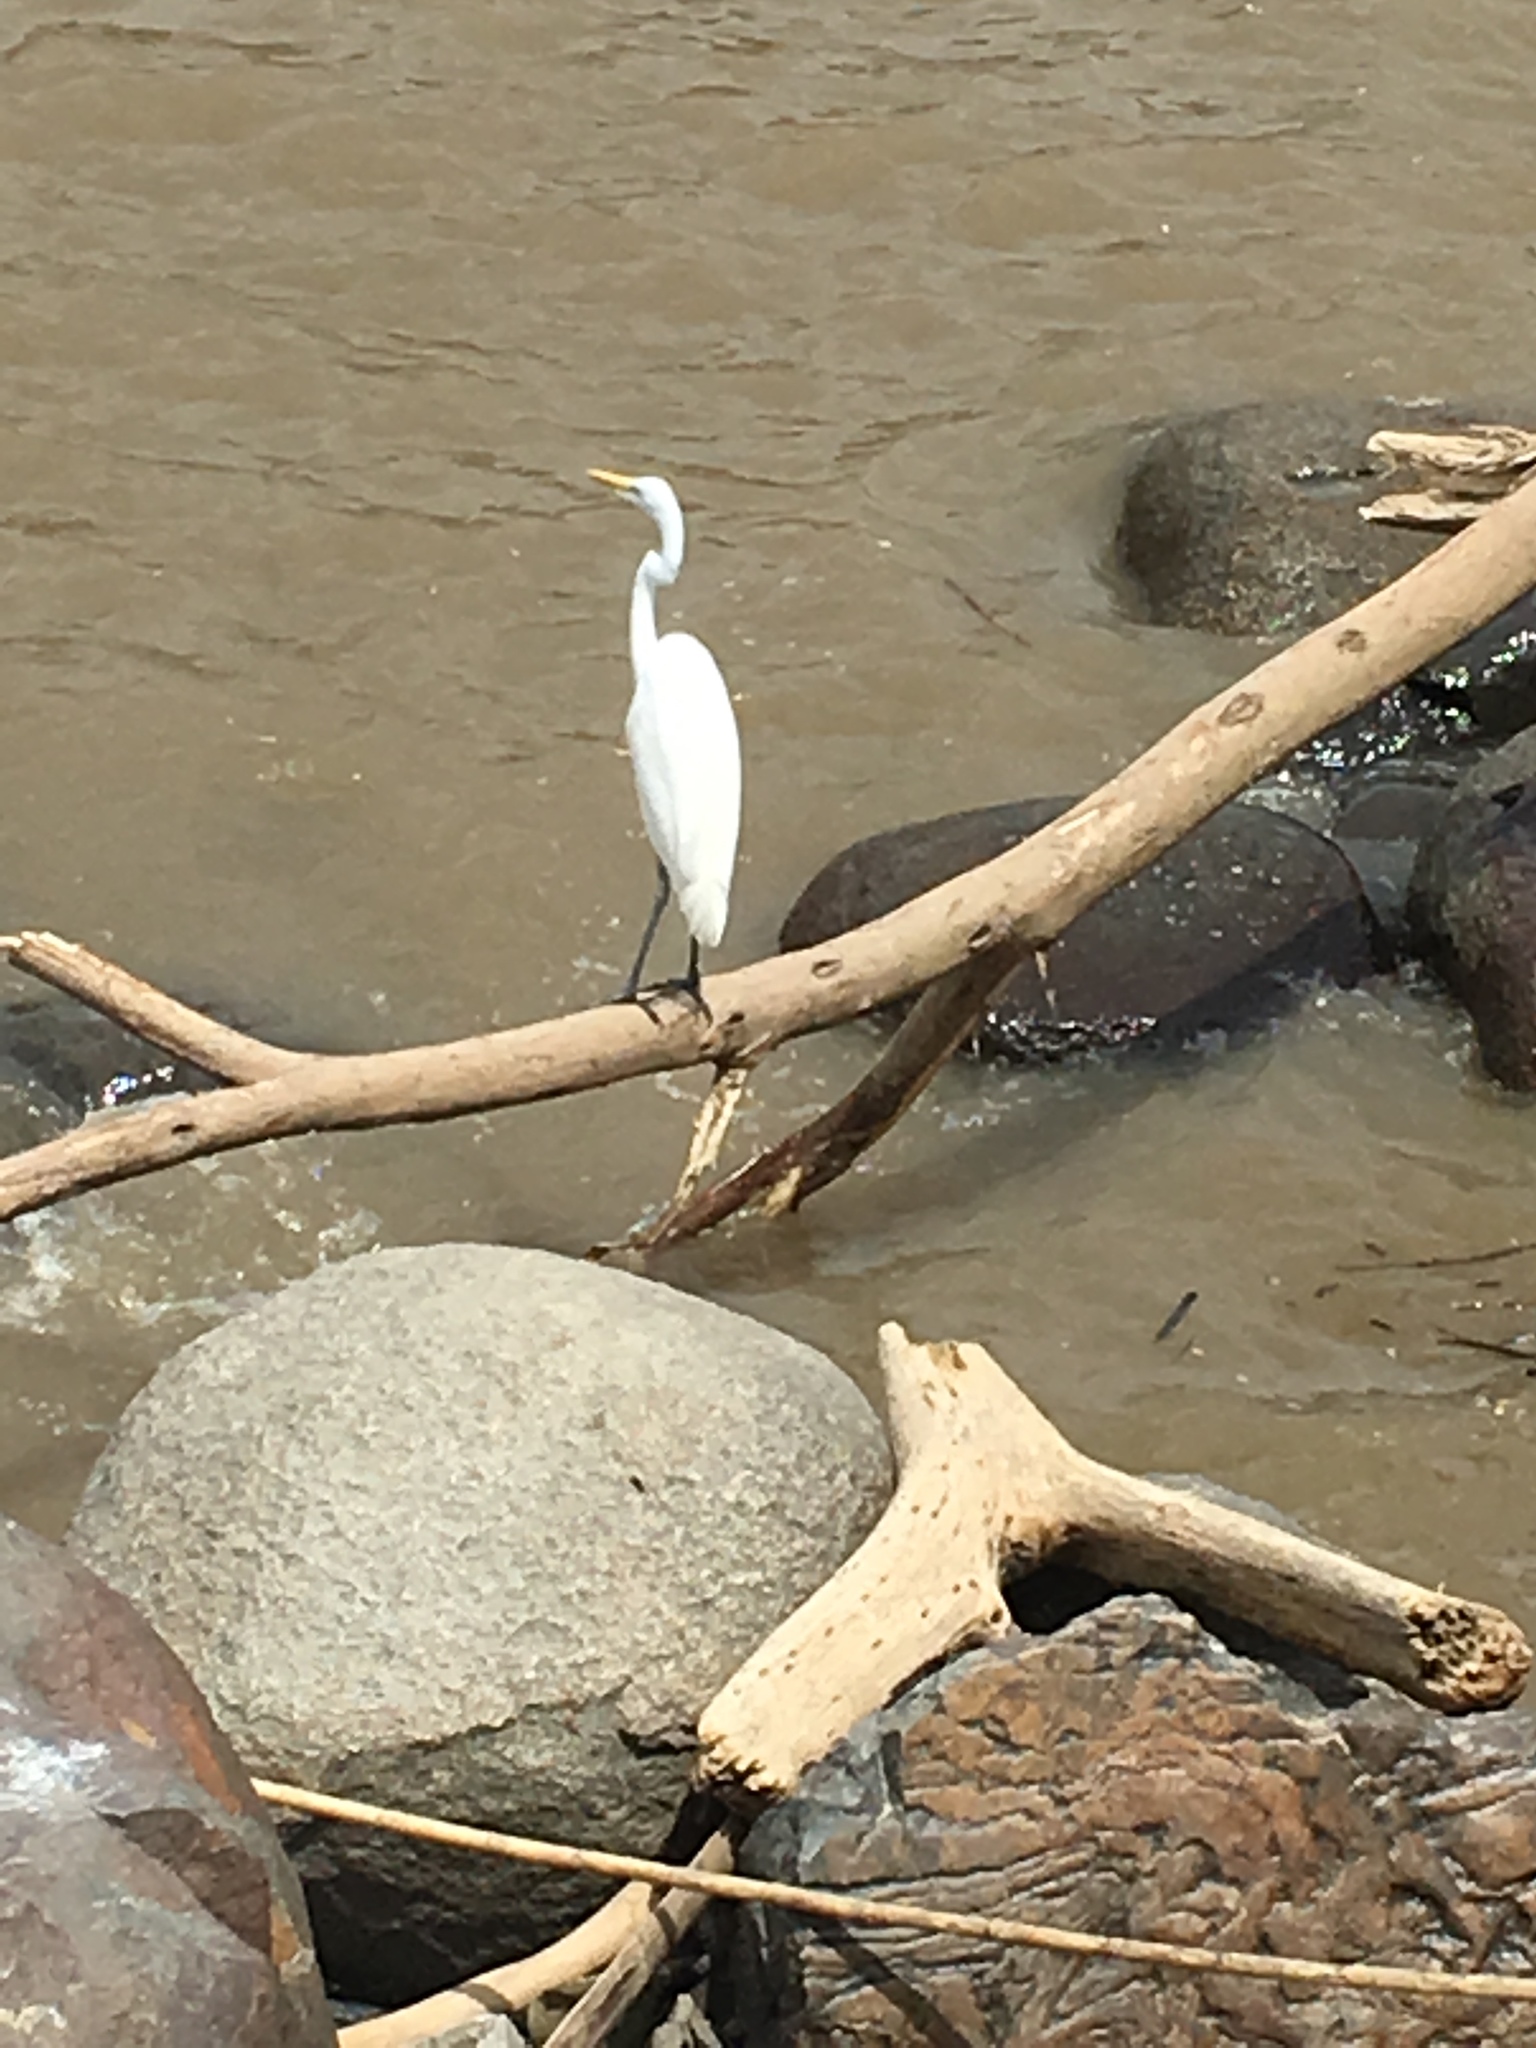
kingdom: Animalia
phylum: Chordata
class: Aves
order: Pelecaniformes
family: Ardeidae
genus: Ardea
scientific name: Ardea alba
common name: Great egret
